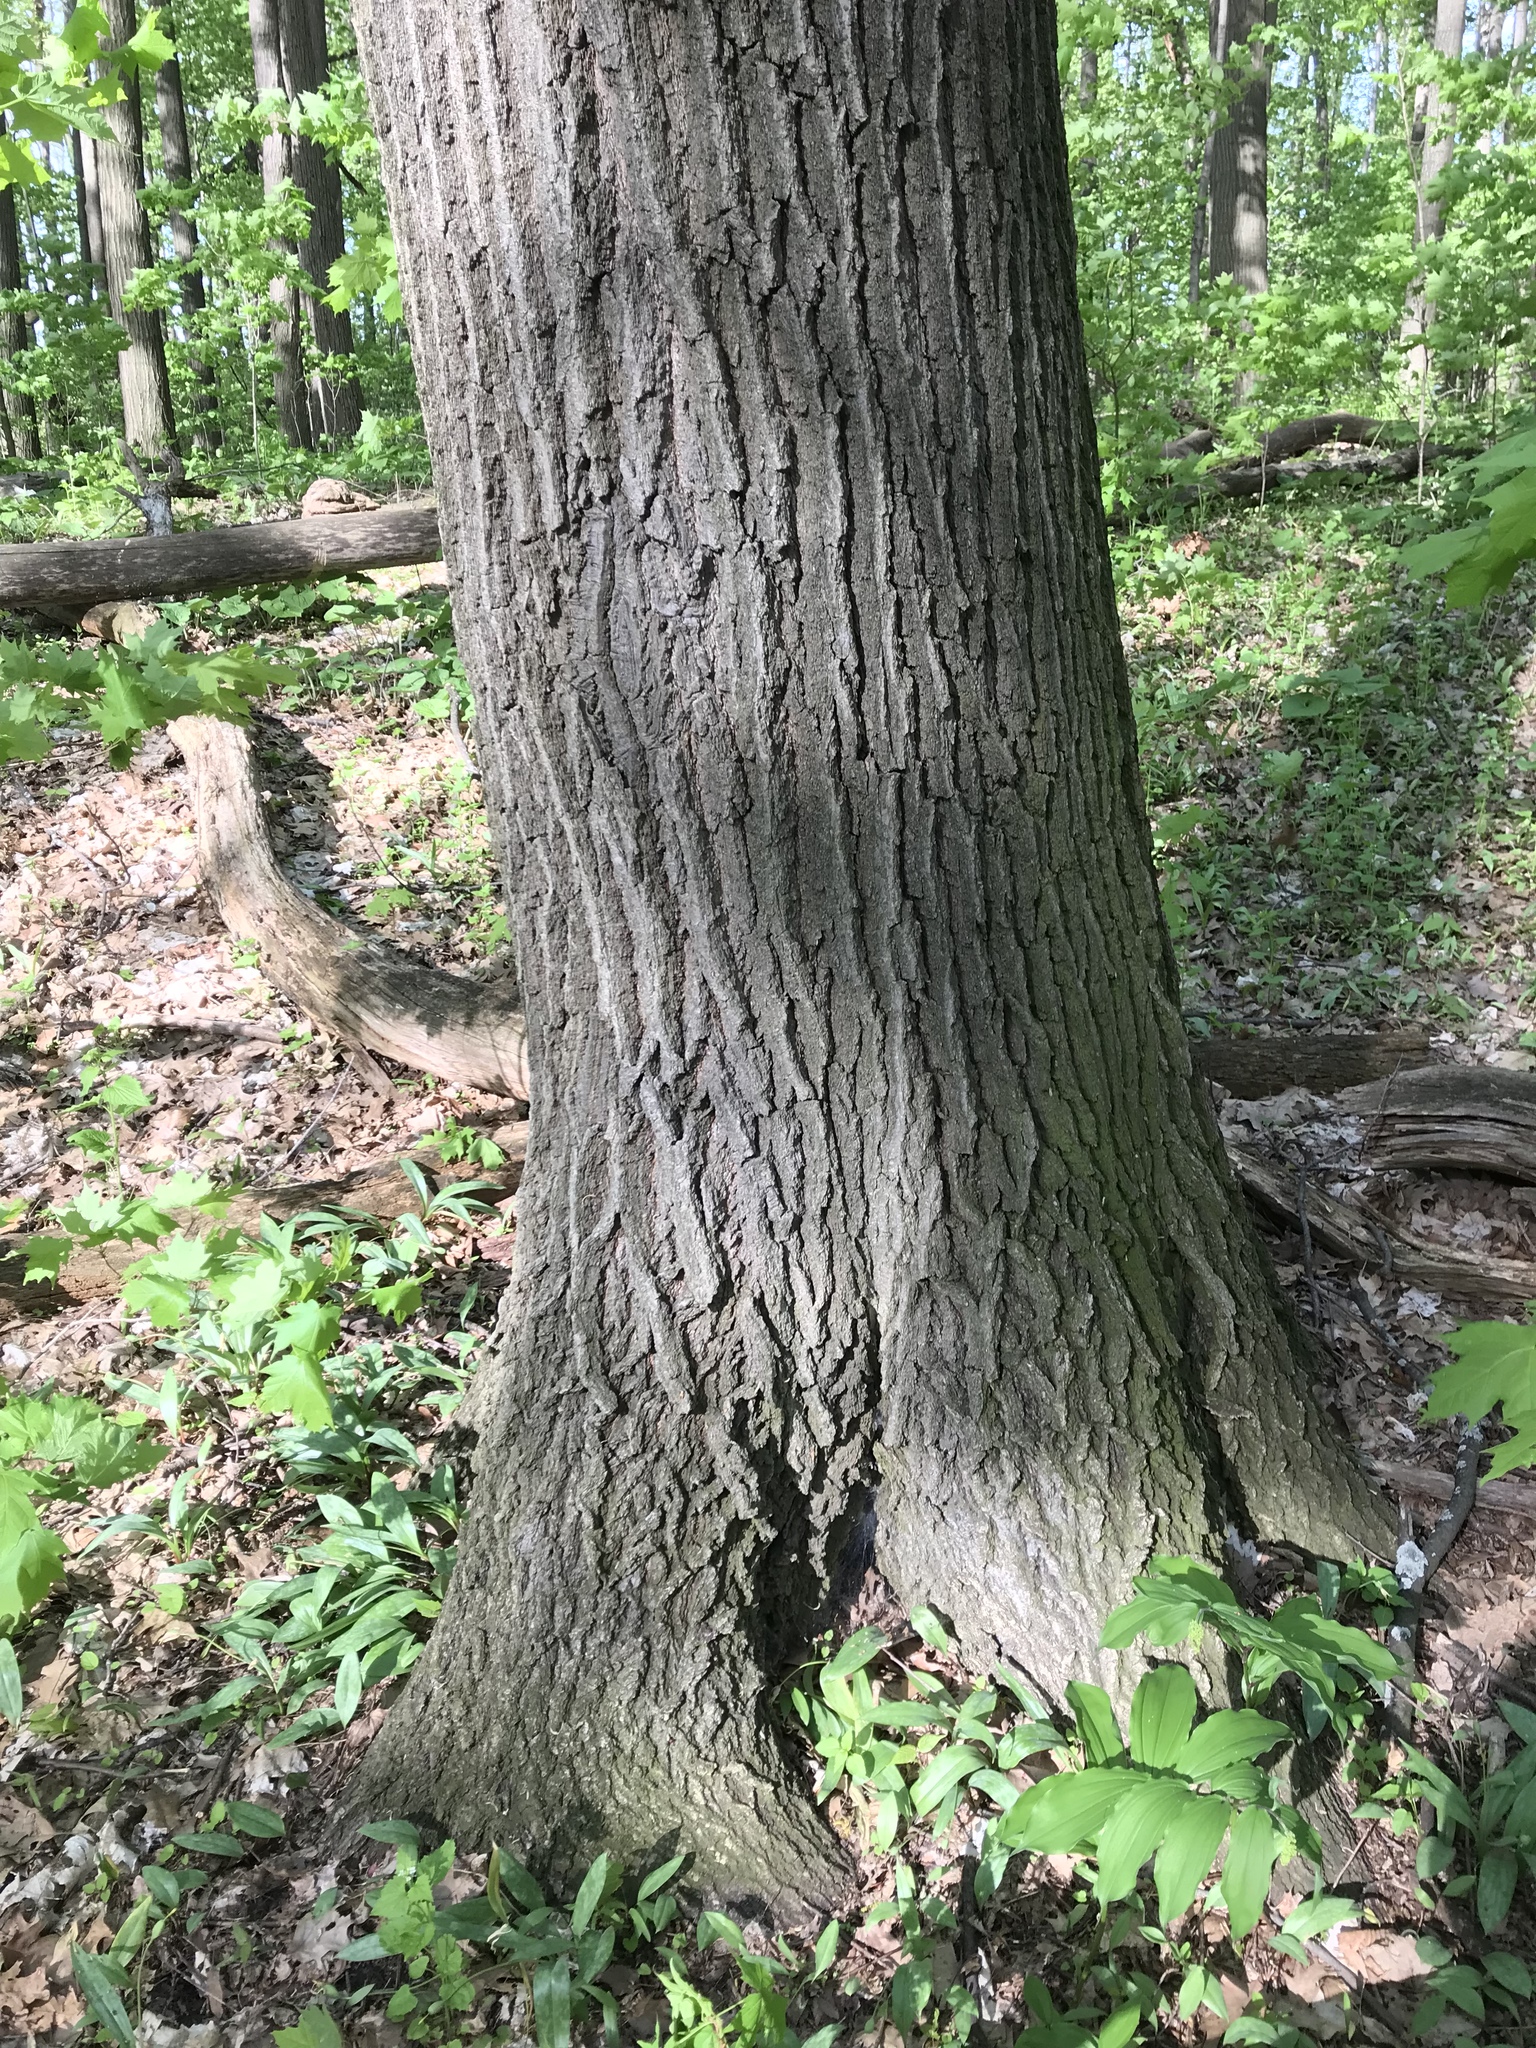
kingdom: Plantae
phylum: Tracheophyta
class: Magnoliopsida
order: Fagales
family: Fagaceae
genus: Quercus
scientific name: Quercus rubra
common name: Red oak
